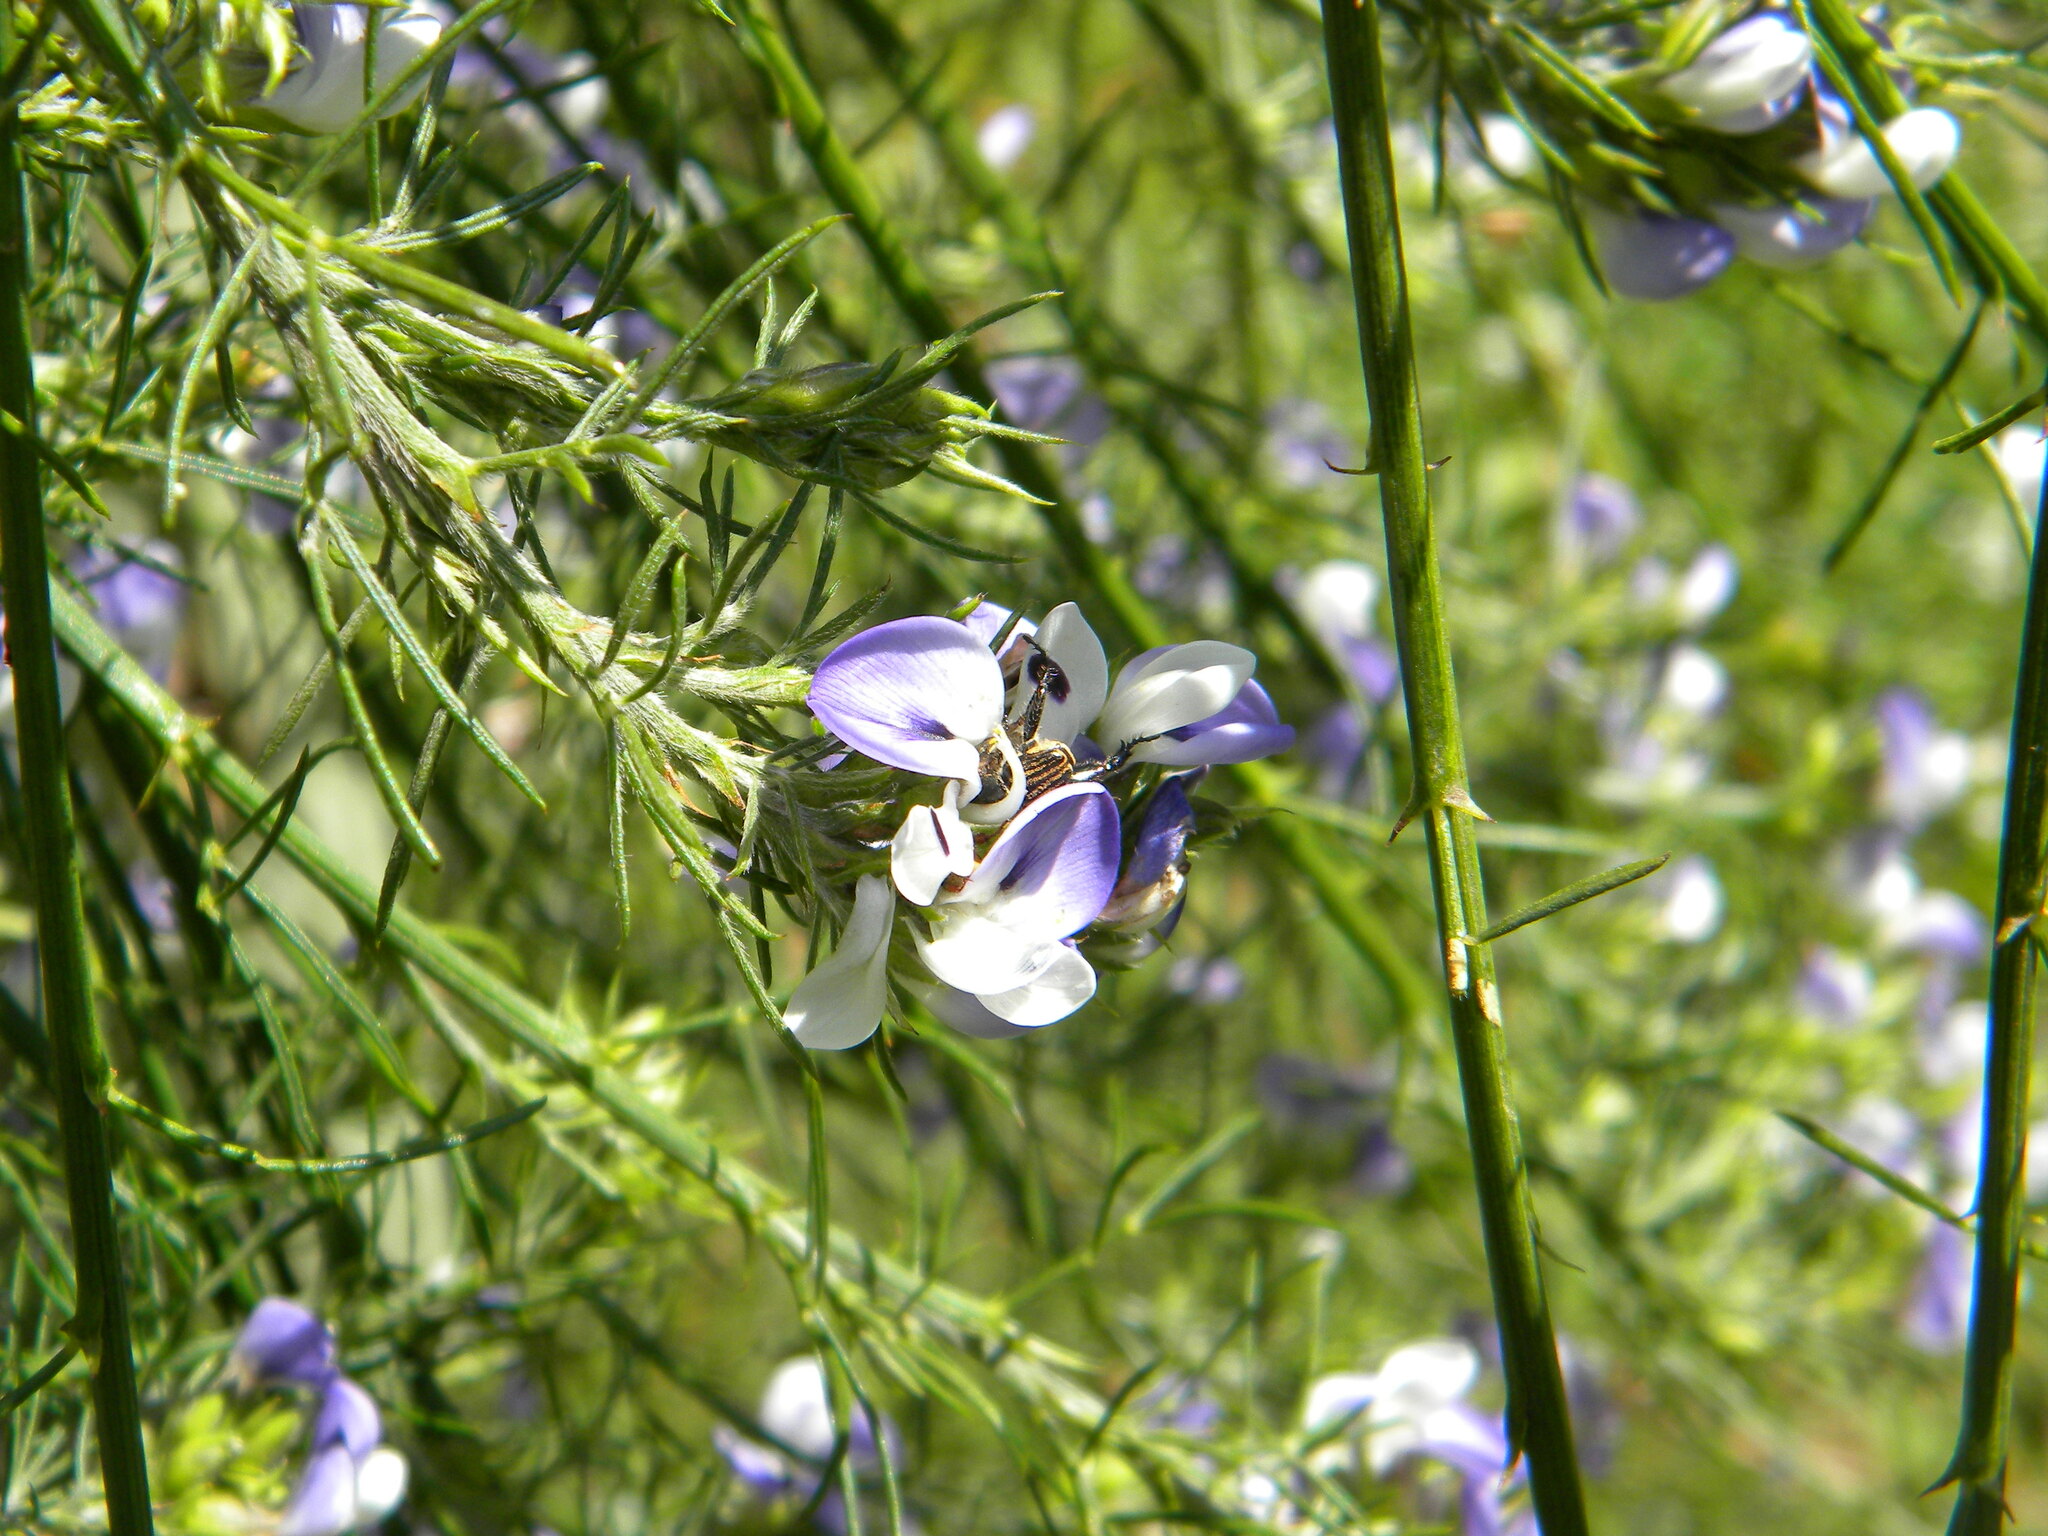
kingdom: Plantae
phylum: Tracheophyta
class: Magnoliopsida
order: Fabales
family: Fabaceae
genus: Psoralea
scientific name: Psoralea filifolia
